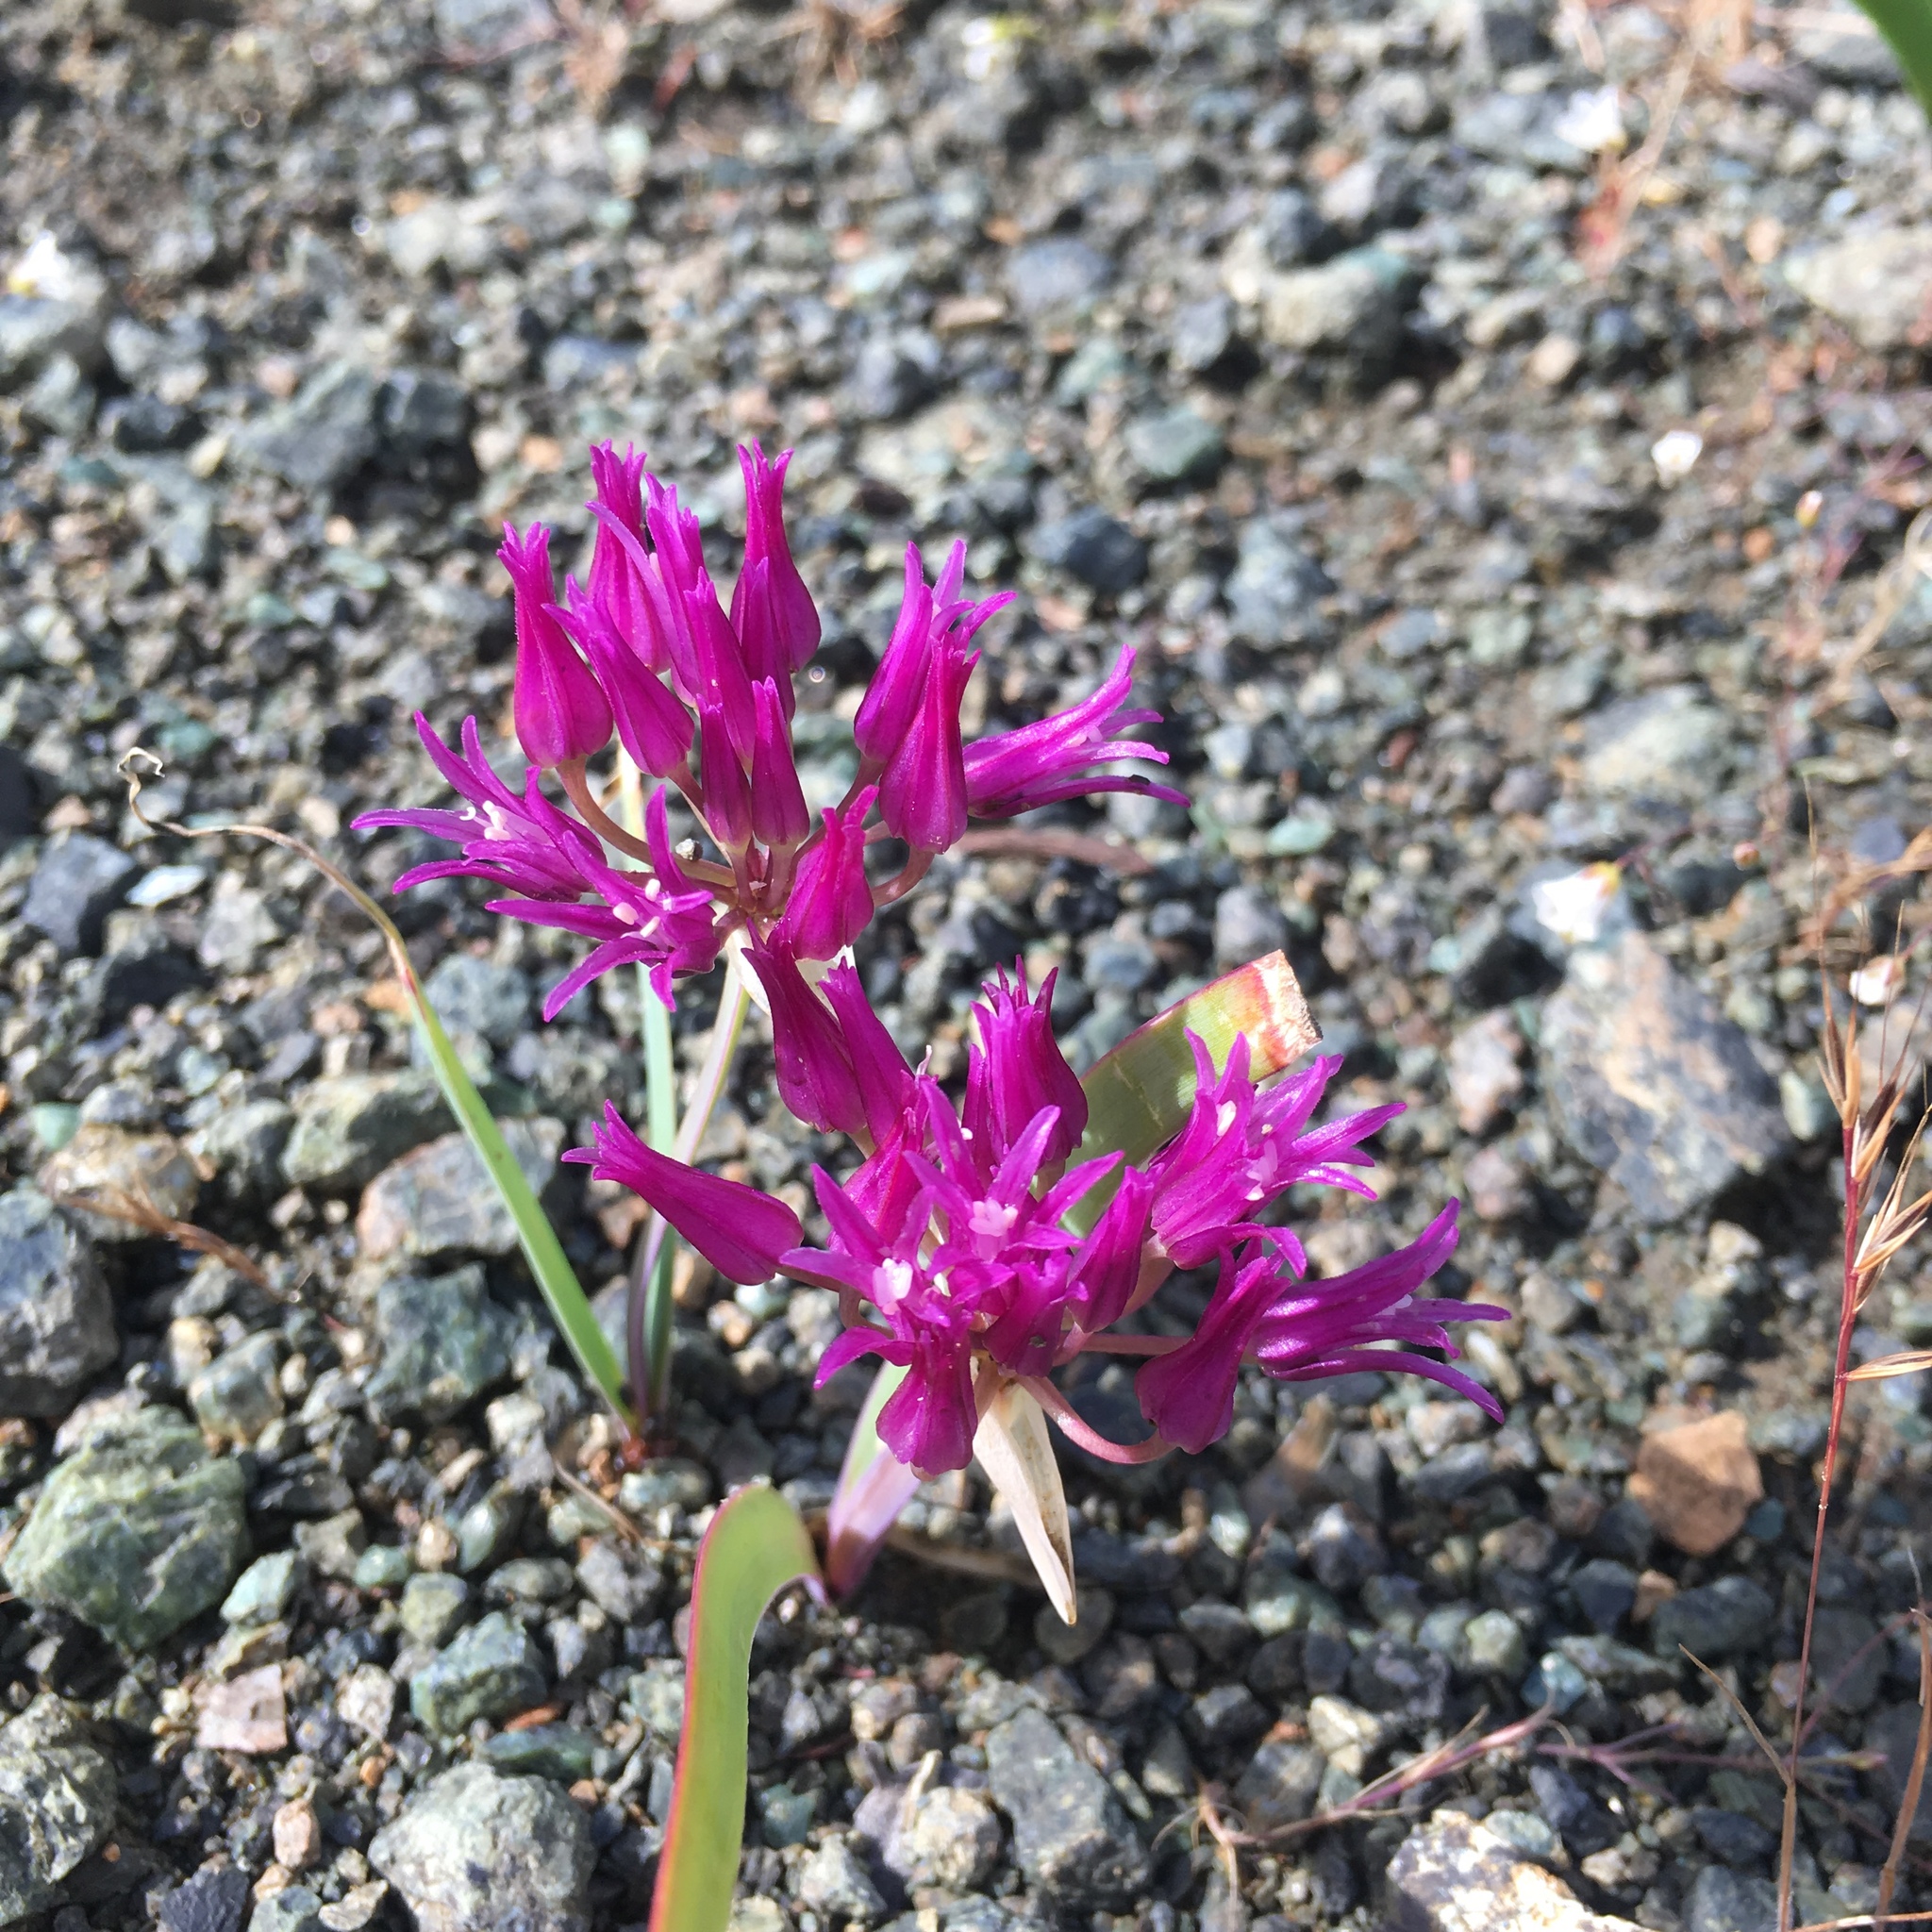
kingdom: Plantae
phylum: Tracheophyta
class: Liliopsida
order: Asparagales
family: Amaryllidaceae
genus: Allium
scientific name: Allium falcifolium
